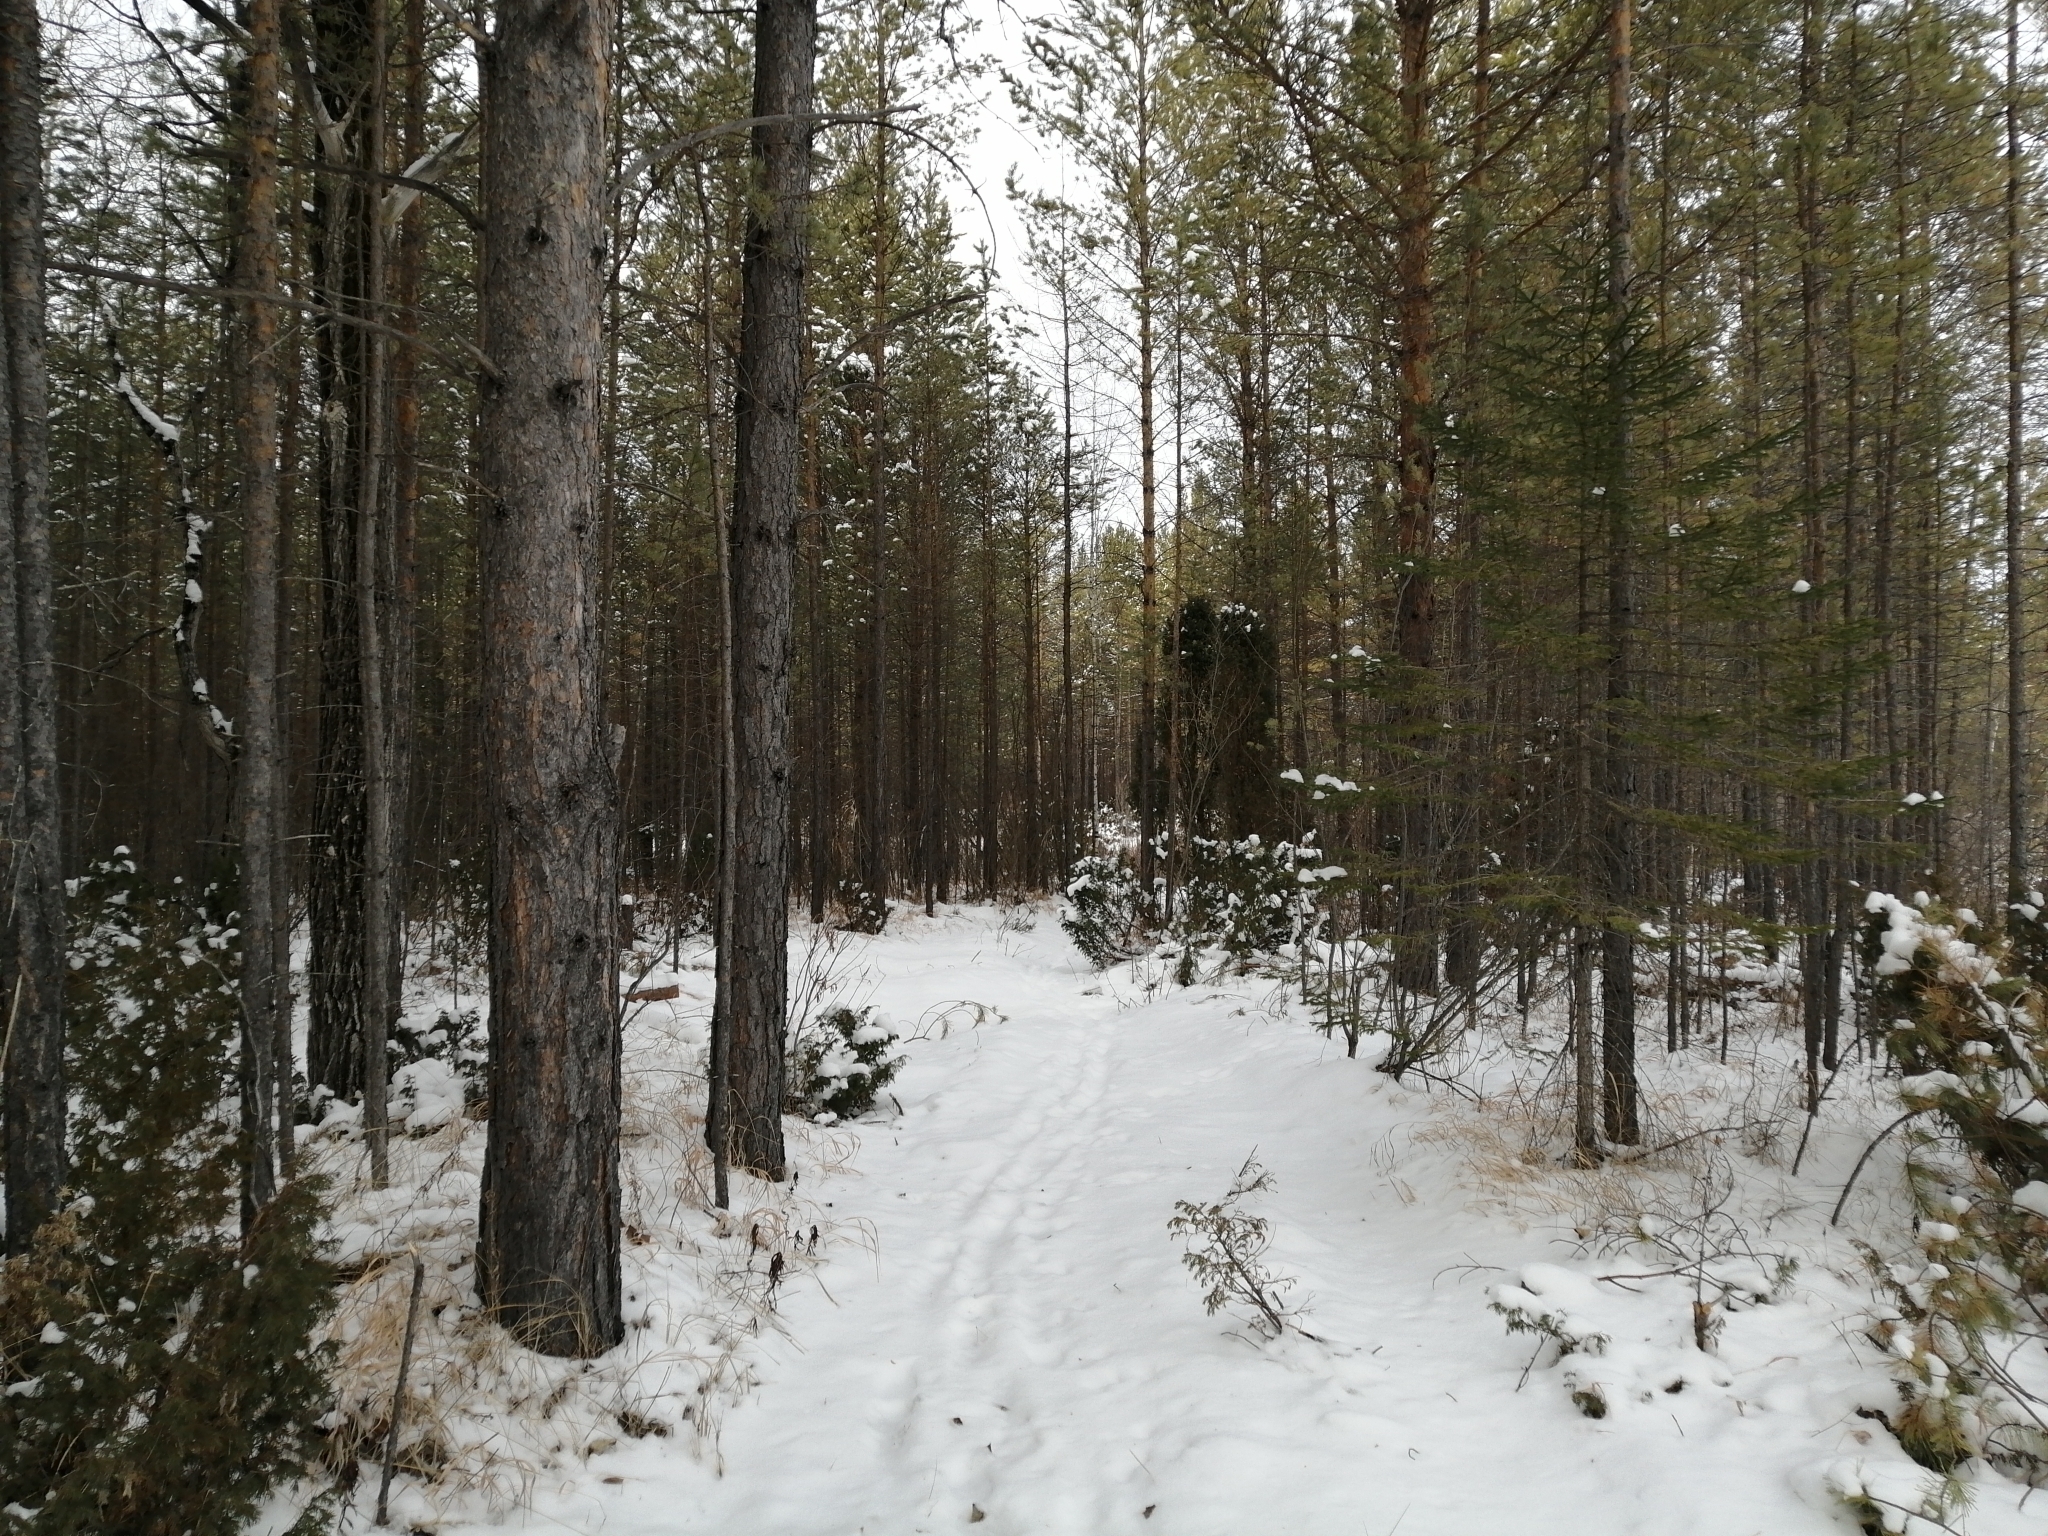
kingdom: Plantae
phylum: Tracheophyta
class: Pinopsida
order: Pinales
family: Pinaceae
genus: Pinus
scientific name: Pinus sylvestris
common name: Scots pine
